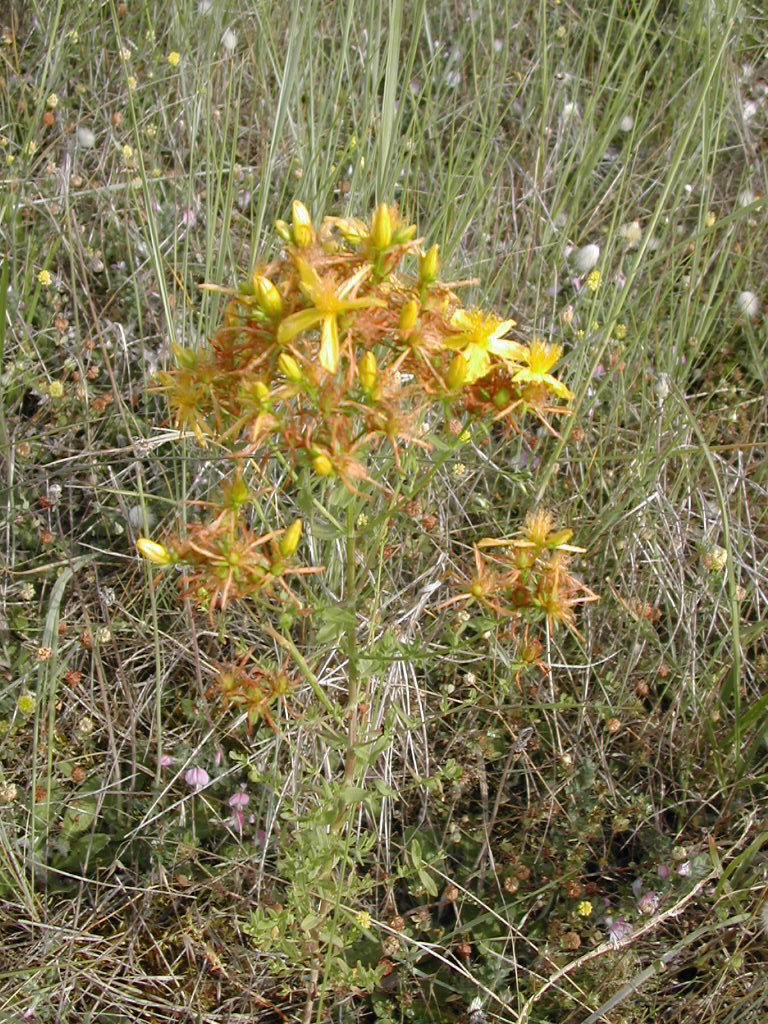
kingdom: Plantae
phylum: Tracheophyta
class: Magnoliopsida
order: Malpighiales
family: Hypericaceae
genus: Hypericum
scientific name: Hypericum perforatum
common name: Common st. johnswort
